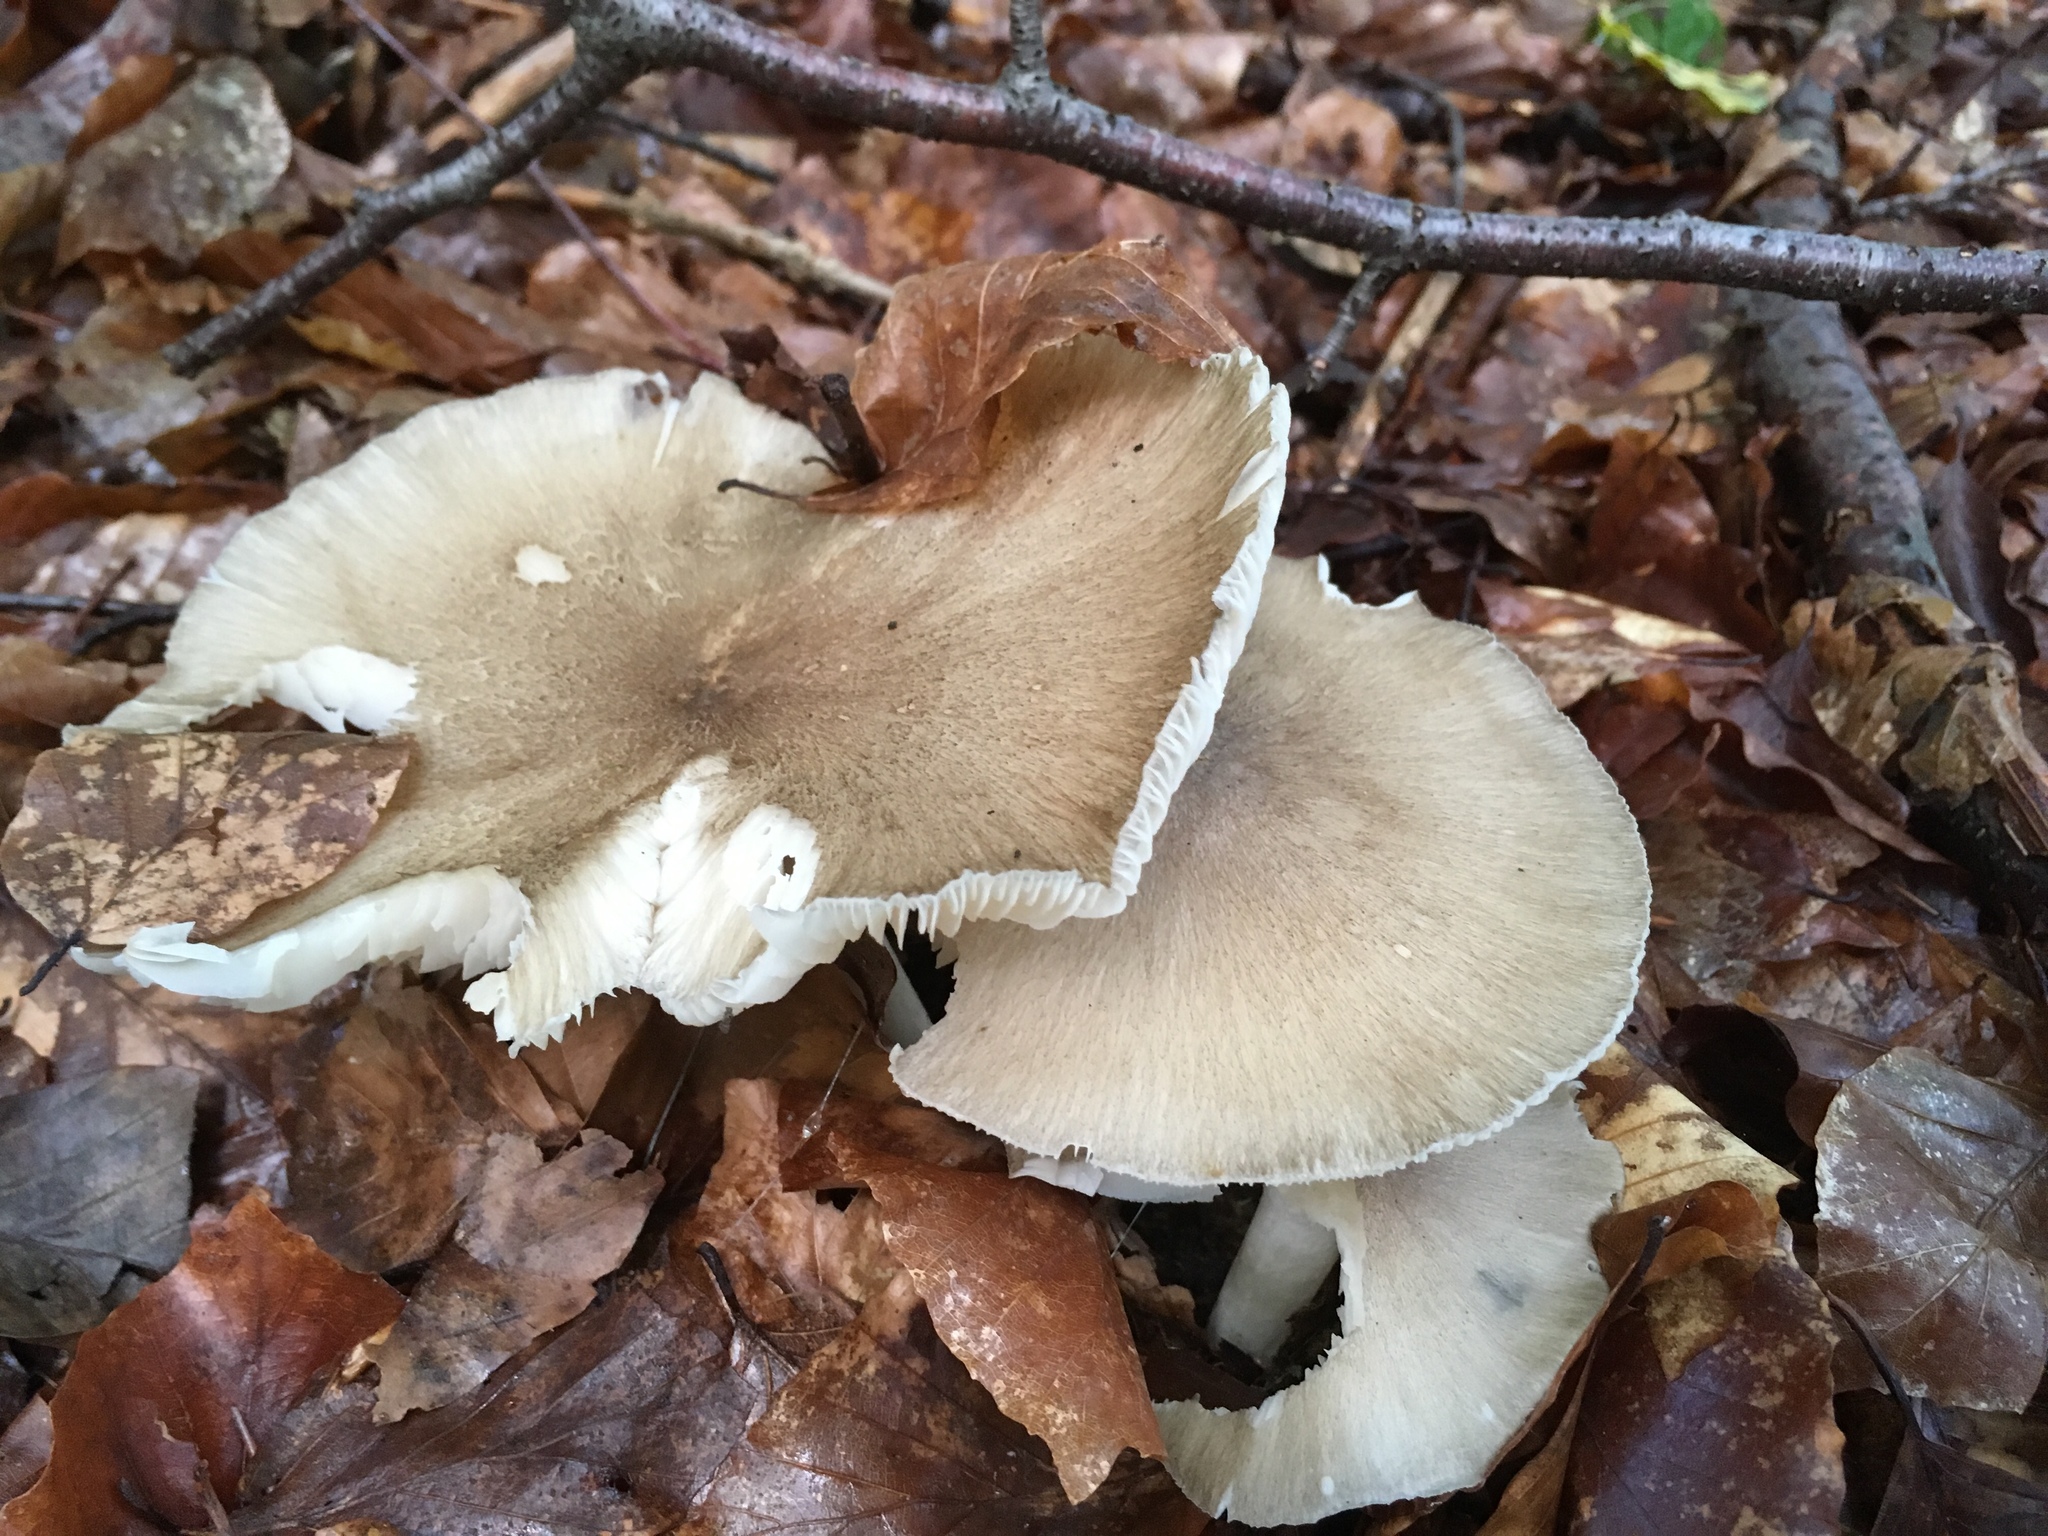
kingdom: Fungi
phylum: Basidiomycota
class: Agaricomycetes
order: Agaricales
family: Tricholomataceae
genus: Megacollybia
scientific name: Megacollybia platyphylla
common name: Whitelaced shank
